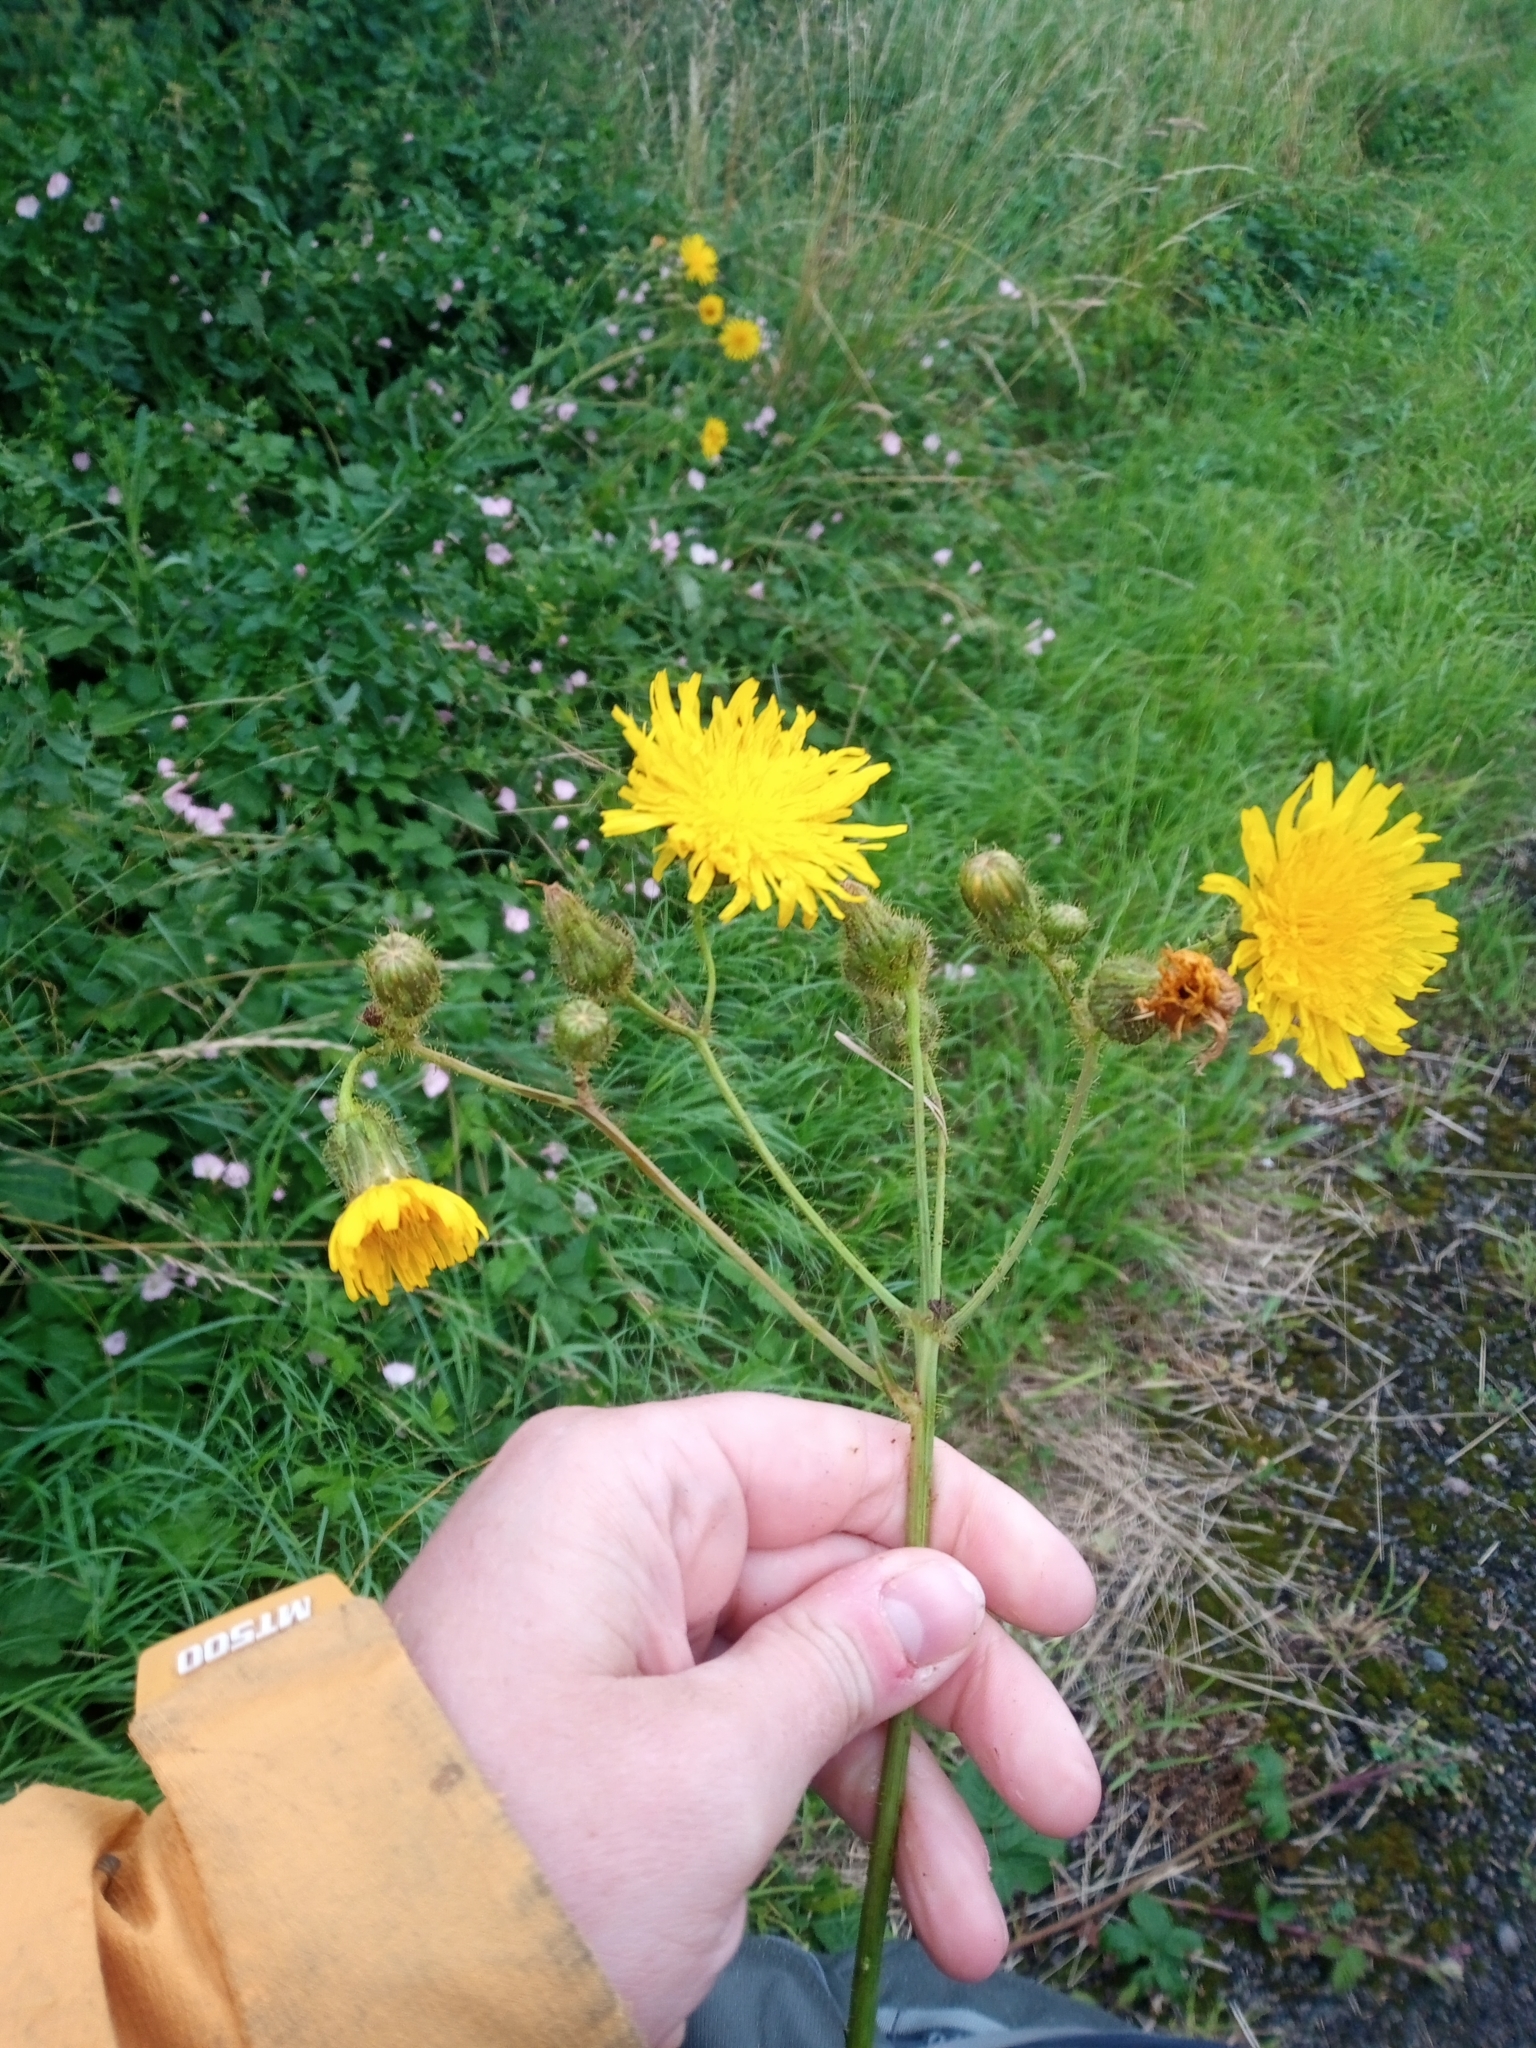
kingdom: Plantae
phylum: Tracheophyta
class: Magnoliopsida
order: Asterales
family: Asteraceae
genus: Sonchus
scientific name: Sonchus arvensis
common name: Perennial sow-thistle
